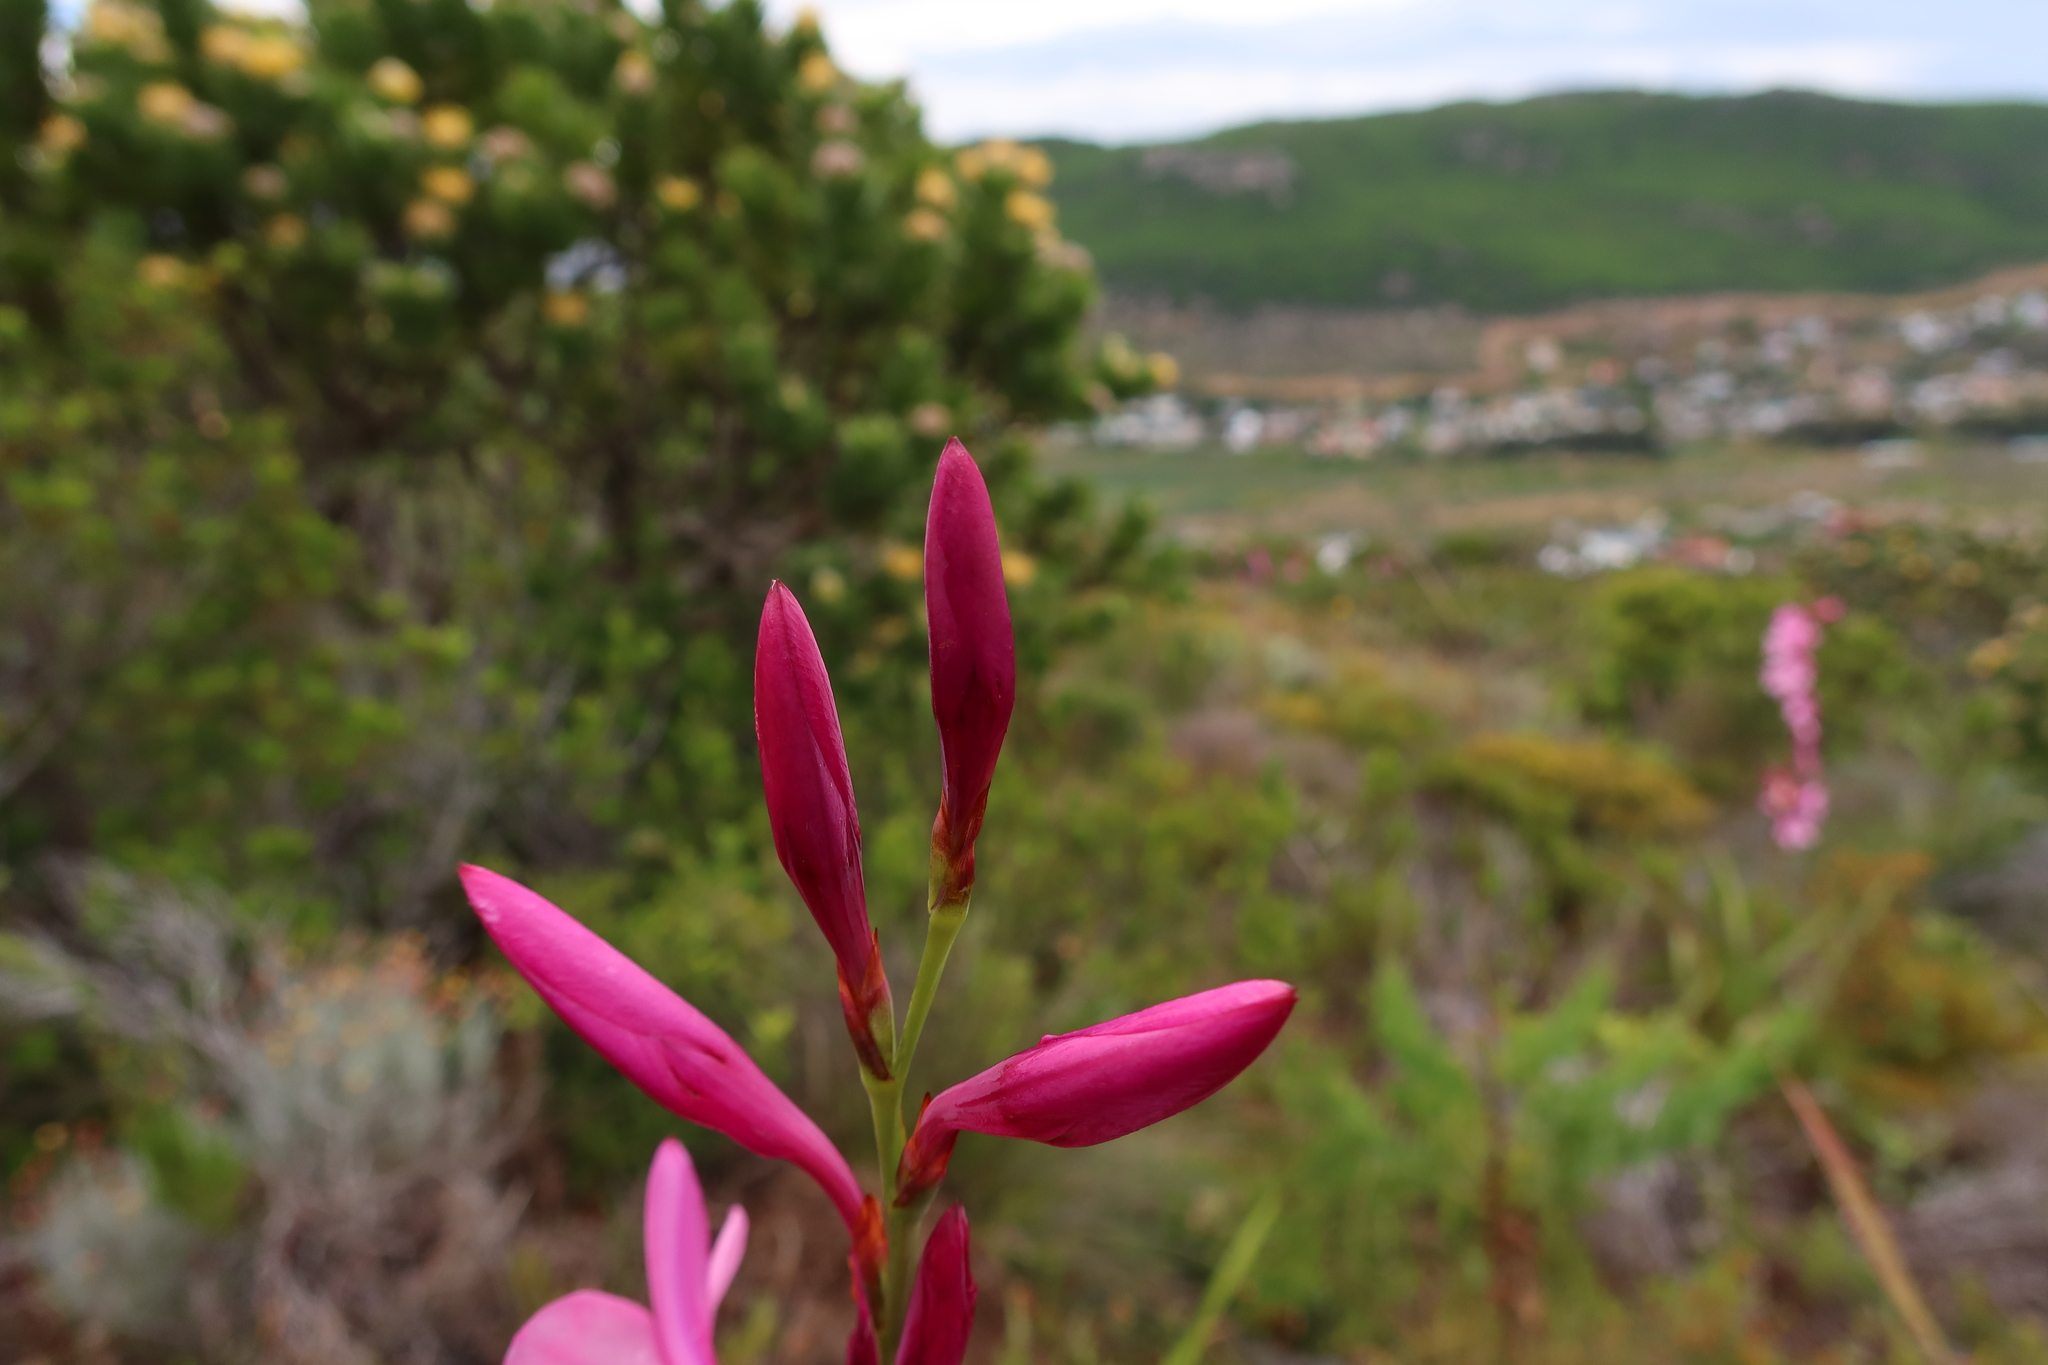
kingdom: Plantae
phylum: Tracheophyta
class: Liliopsida
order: Asparagales
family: Iridaceae
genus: Watsonia
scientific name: Watsonia borbonica
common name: Bugle-lily
